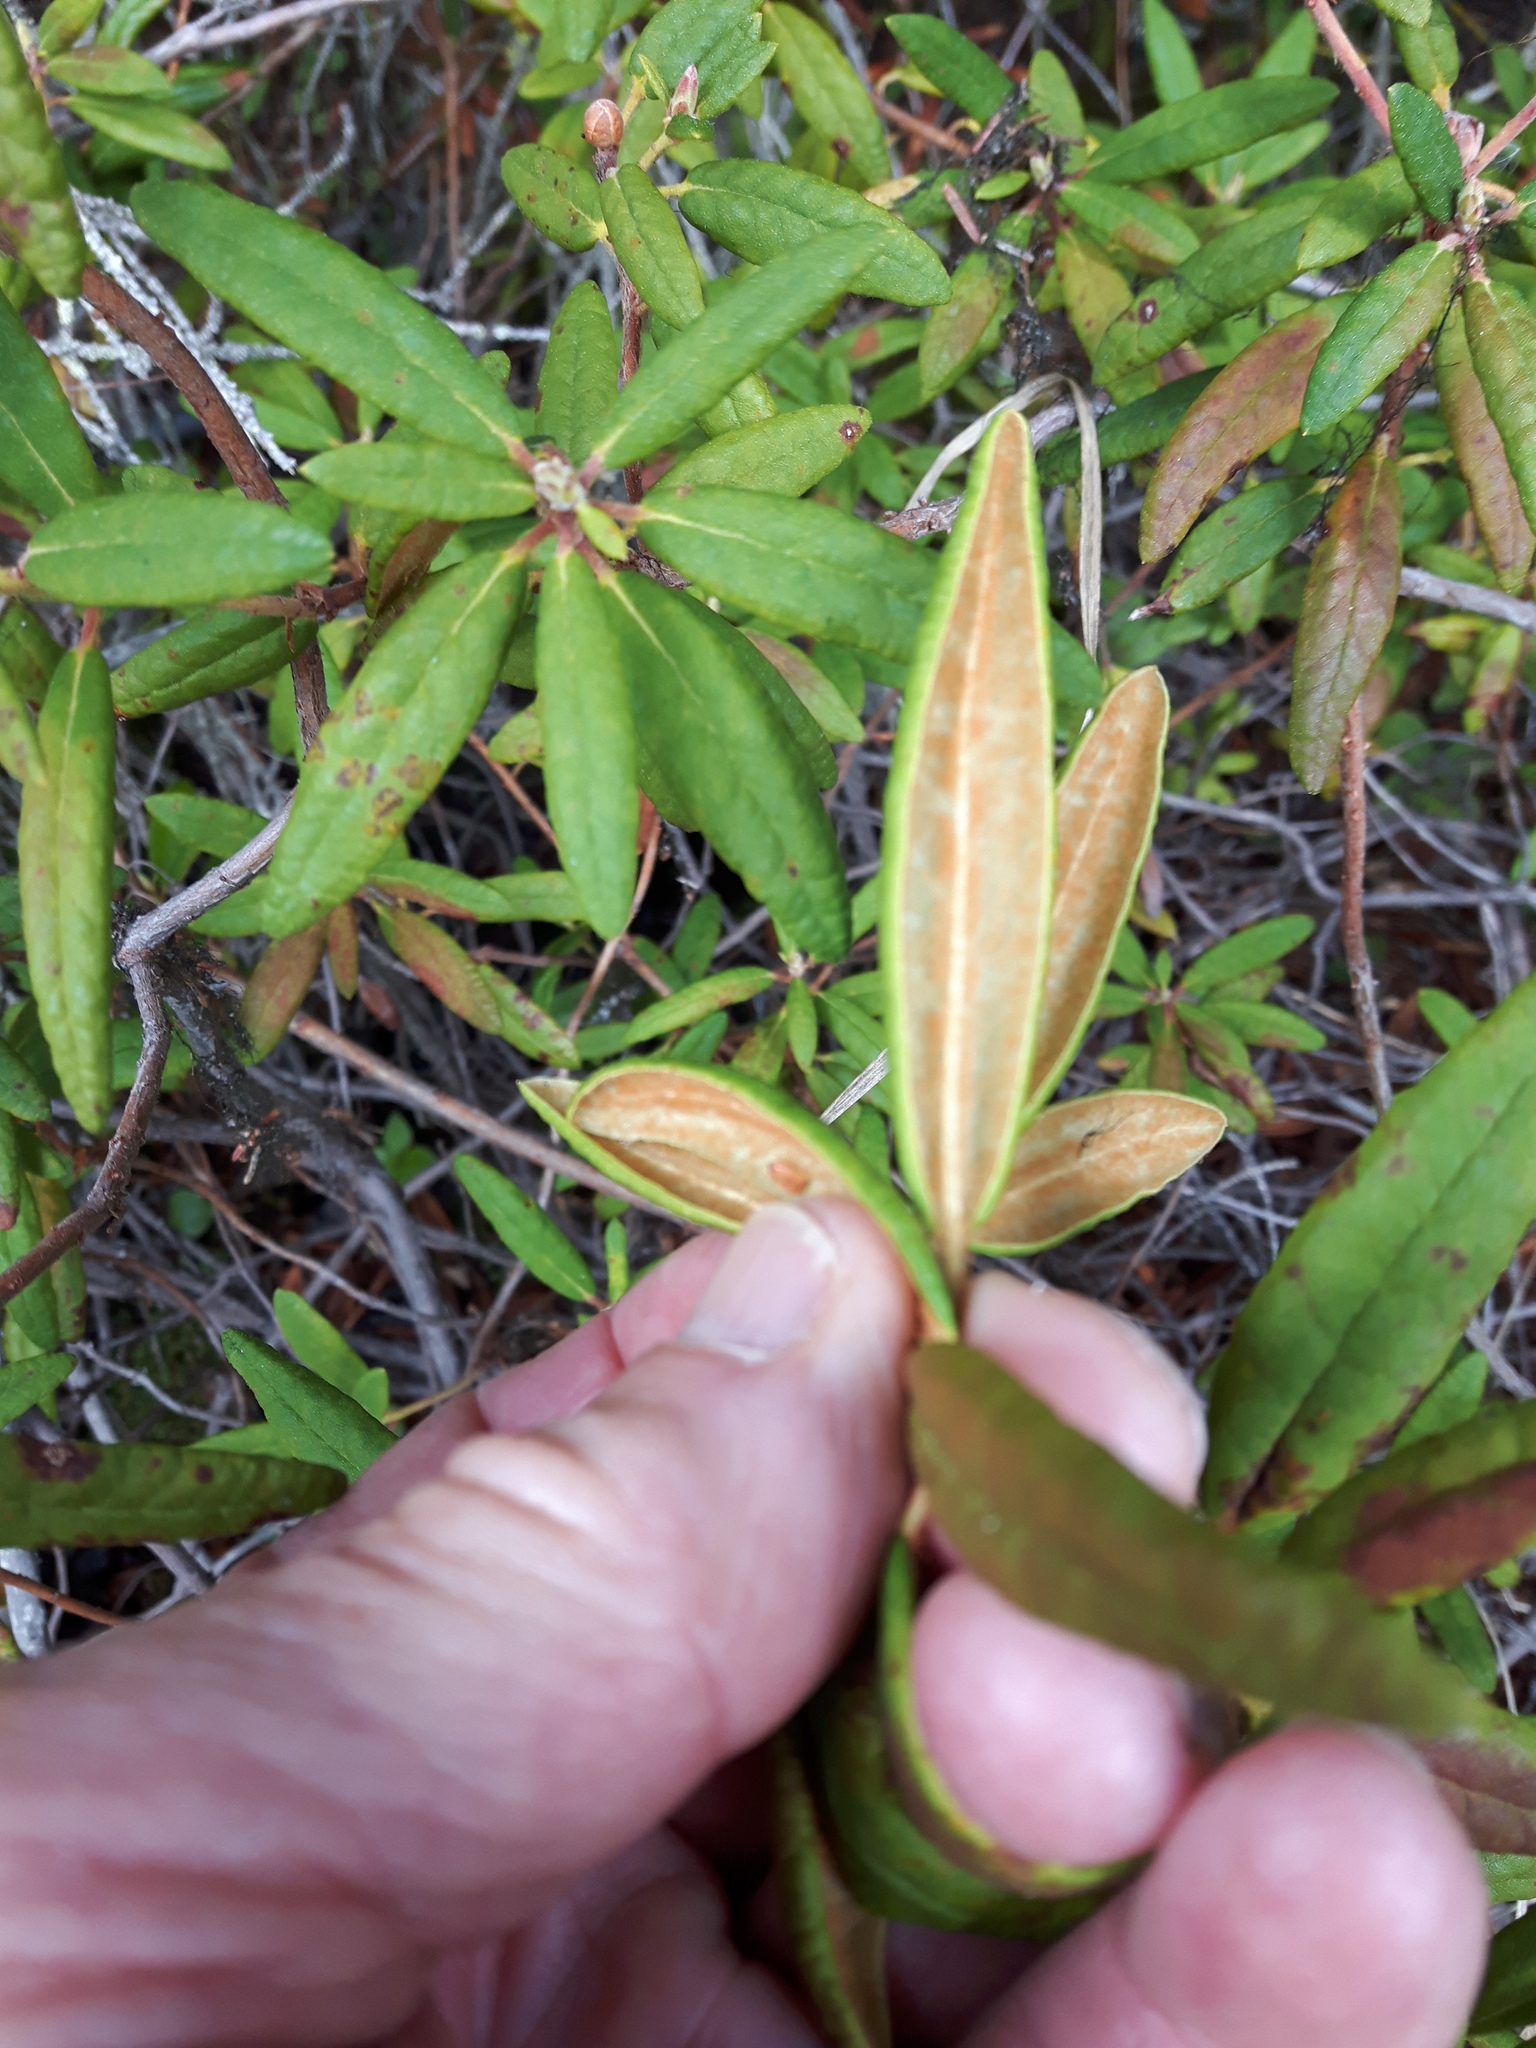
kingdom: Plantae
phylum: Tracheophyta
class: Magnoliopsida
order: Ericales
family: Ericaceae
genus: Rhododendron
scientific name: Rhododendron groenlandicum
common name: Bog labrador tea
